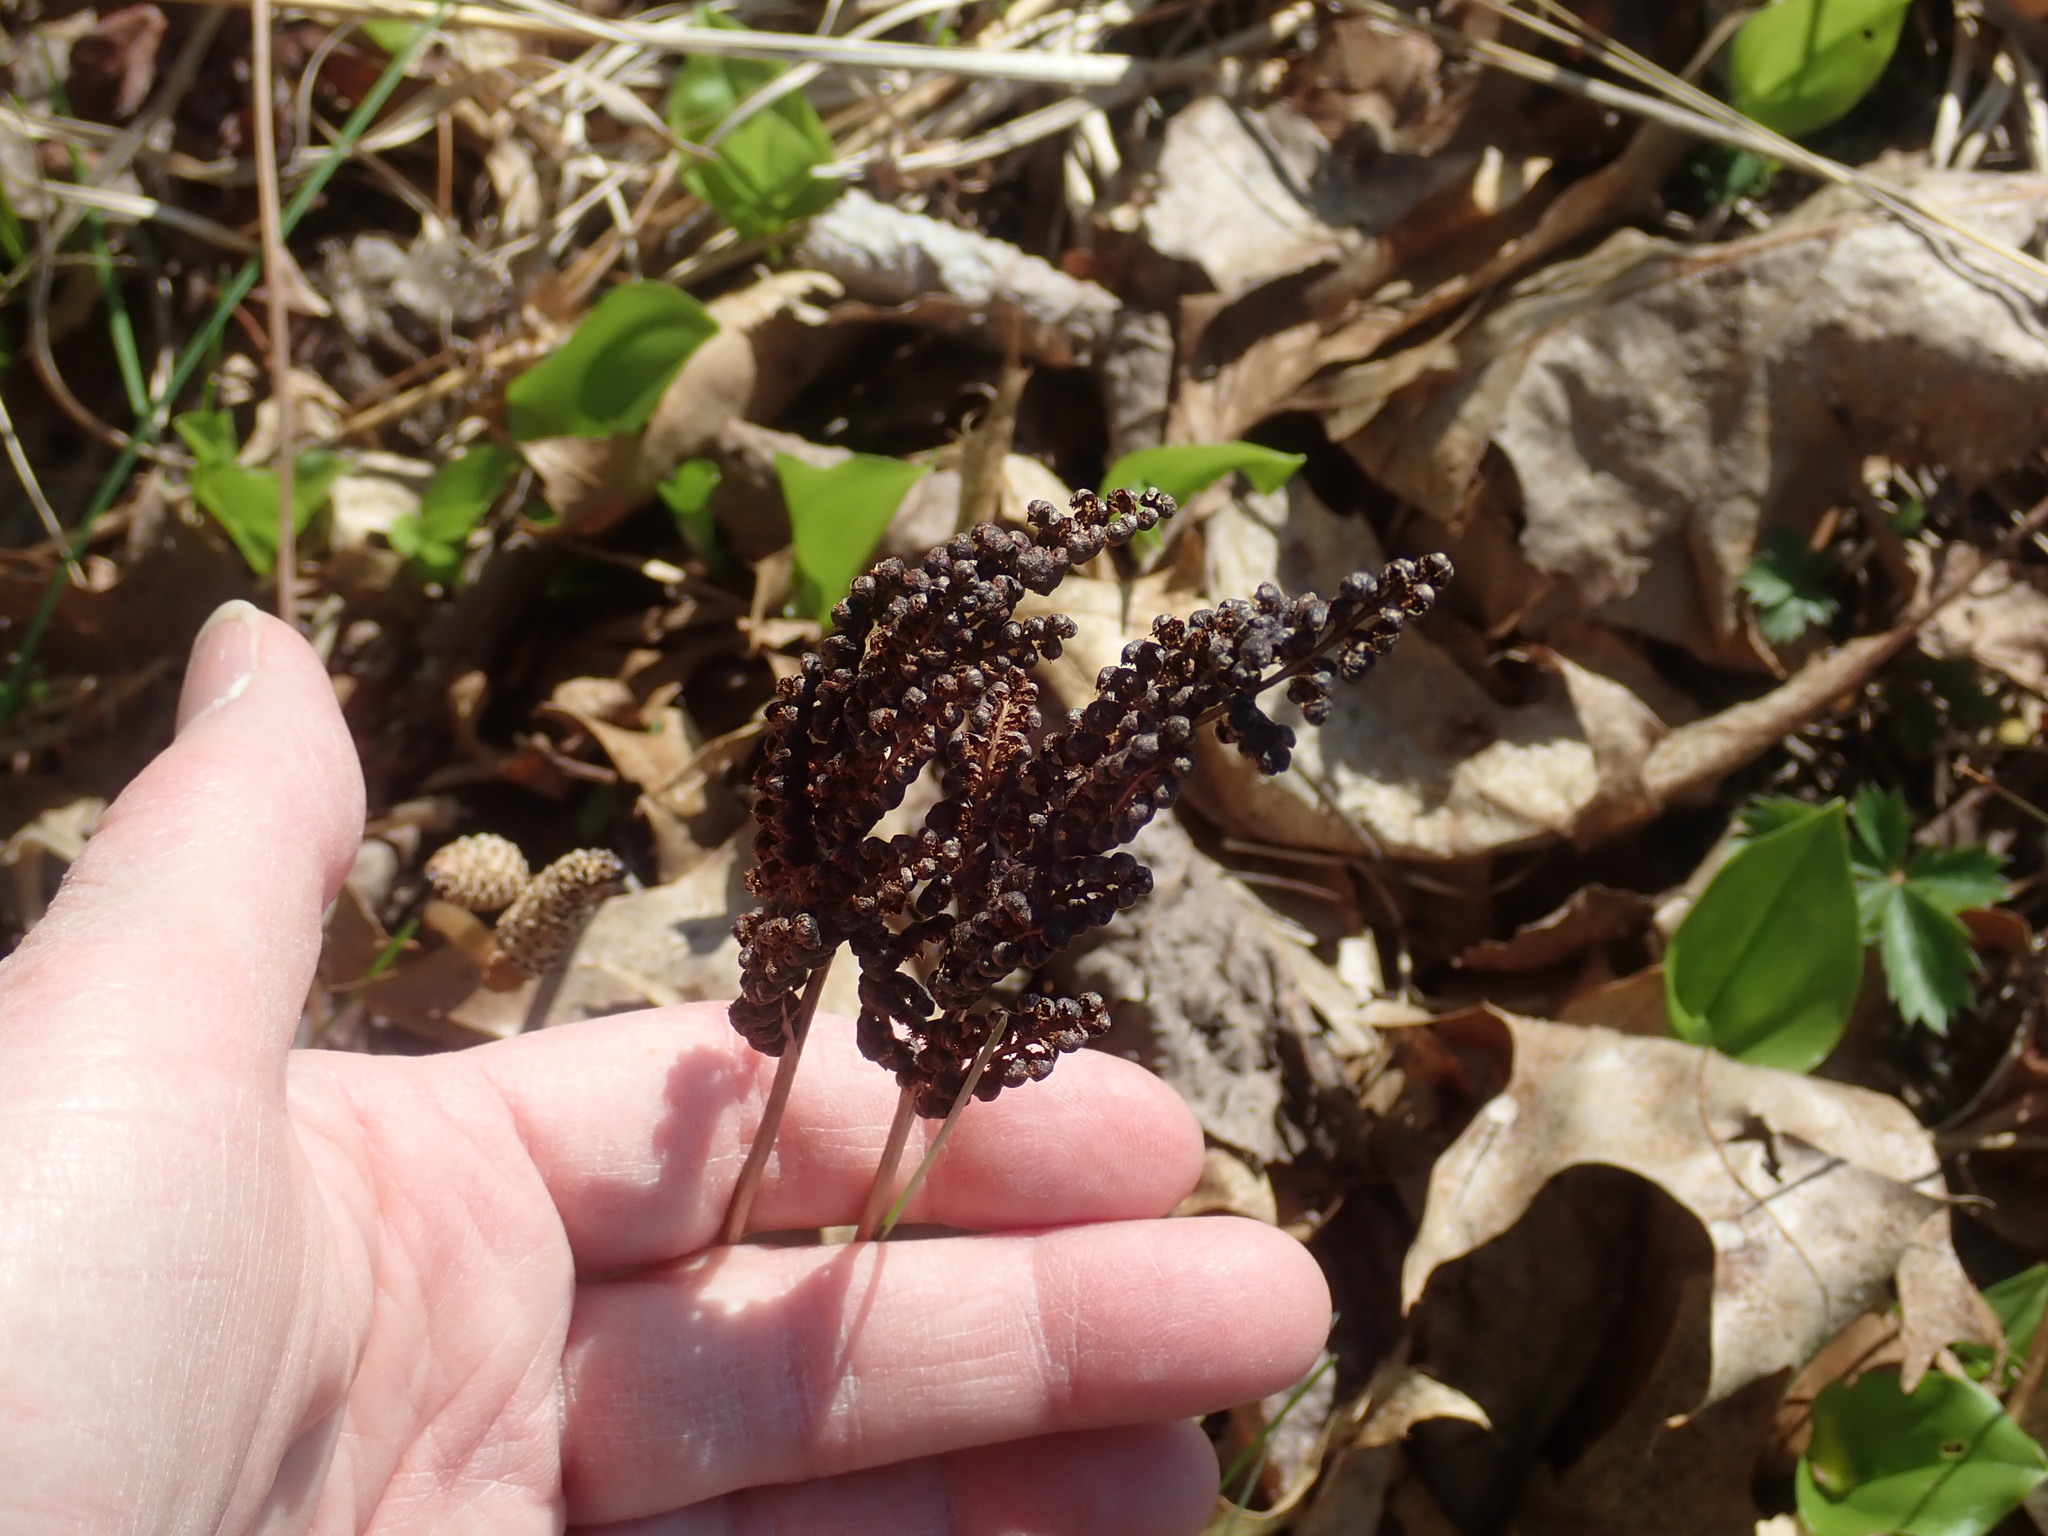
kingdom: Plantae
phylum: Tracheophyta
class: Polypodiopsida
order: Polypodiales
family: Onocleaceae
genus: Onoclea
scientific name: Onoclea sensibilis
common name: Sensitive fern
